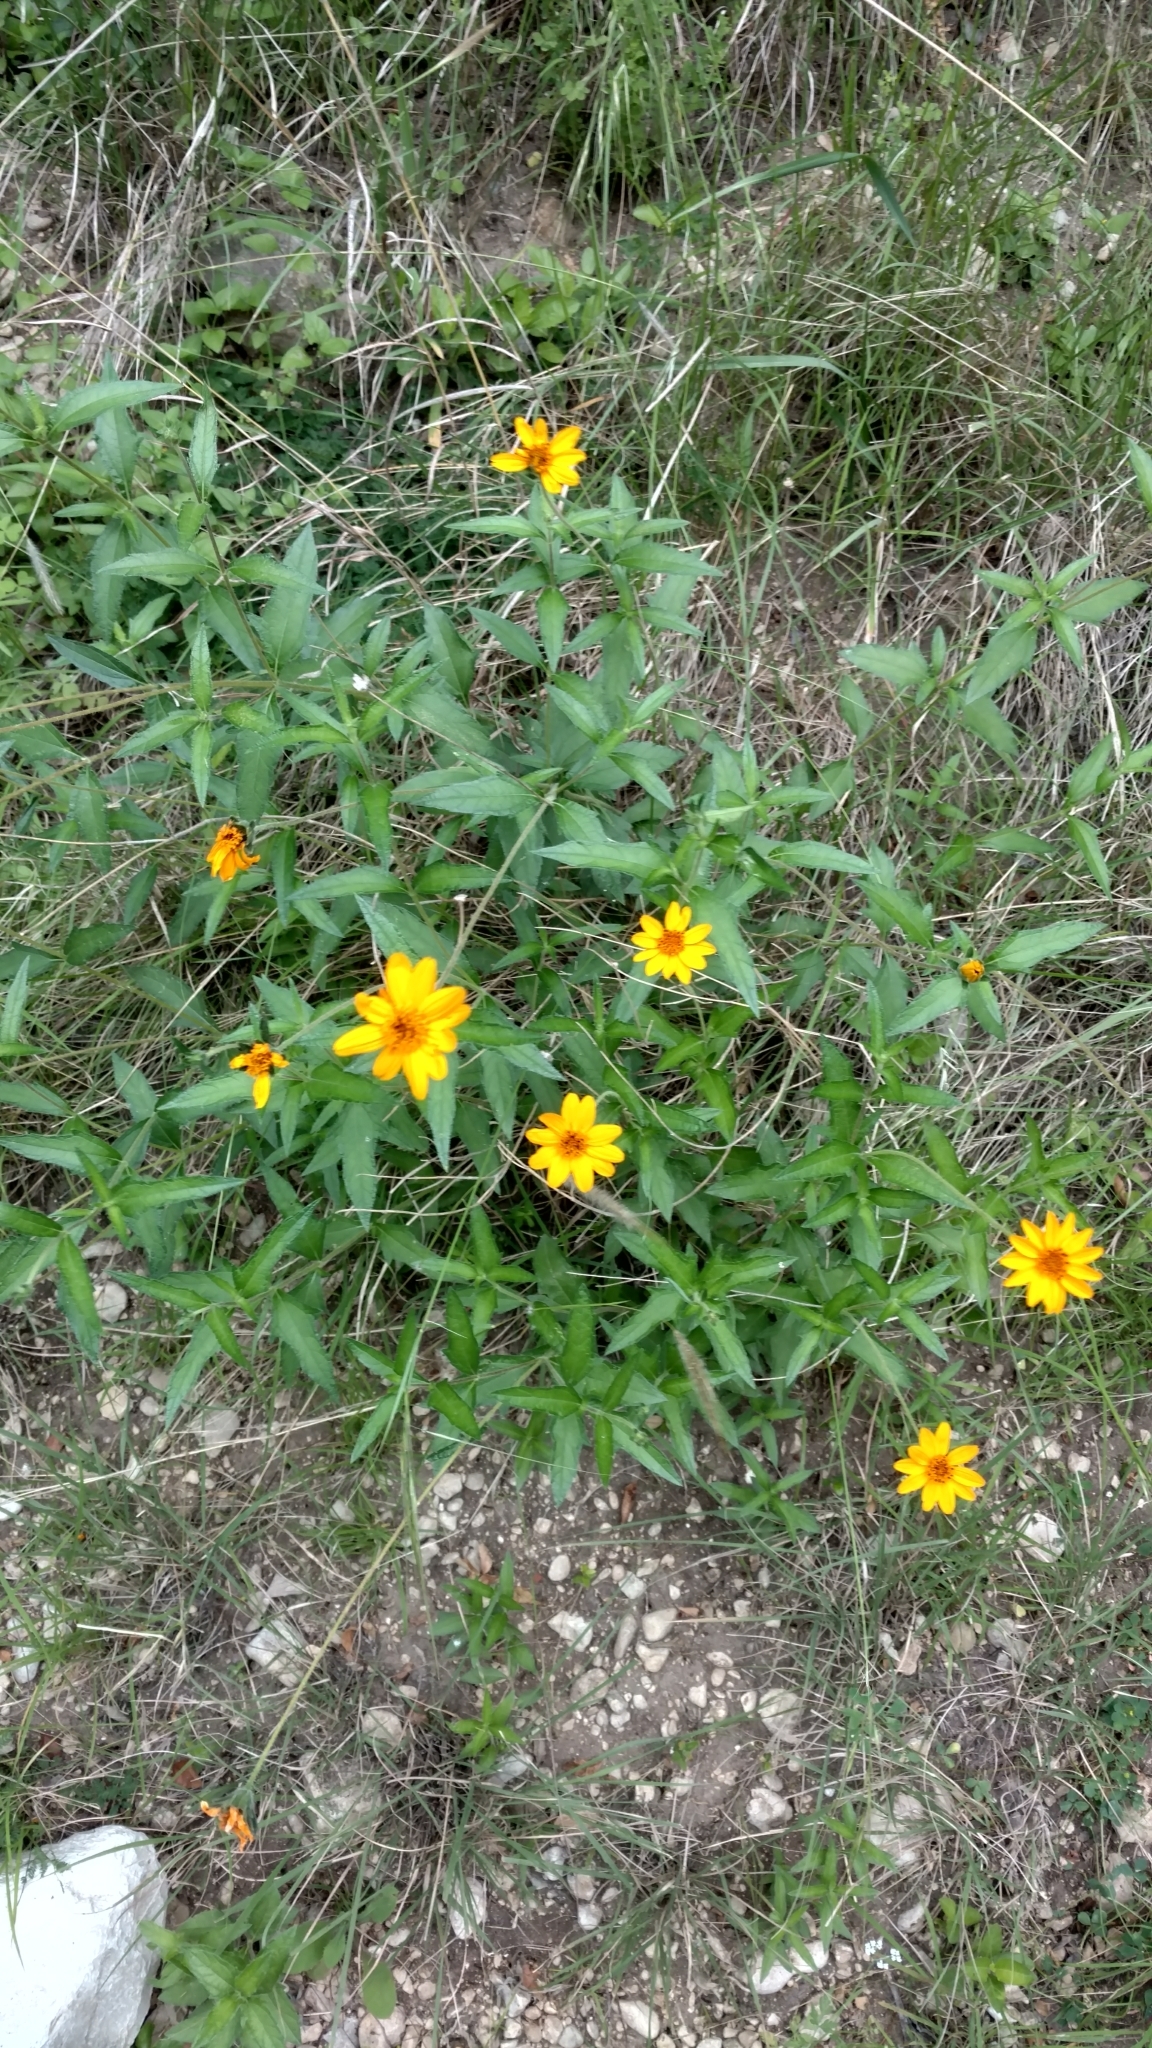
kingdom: Plantae
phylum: Tracheophyta
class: Magnoliopsida
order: Asterales
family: Asteraceae
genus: Wedelia
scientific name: Wedelia acapulcensis
